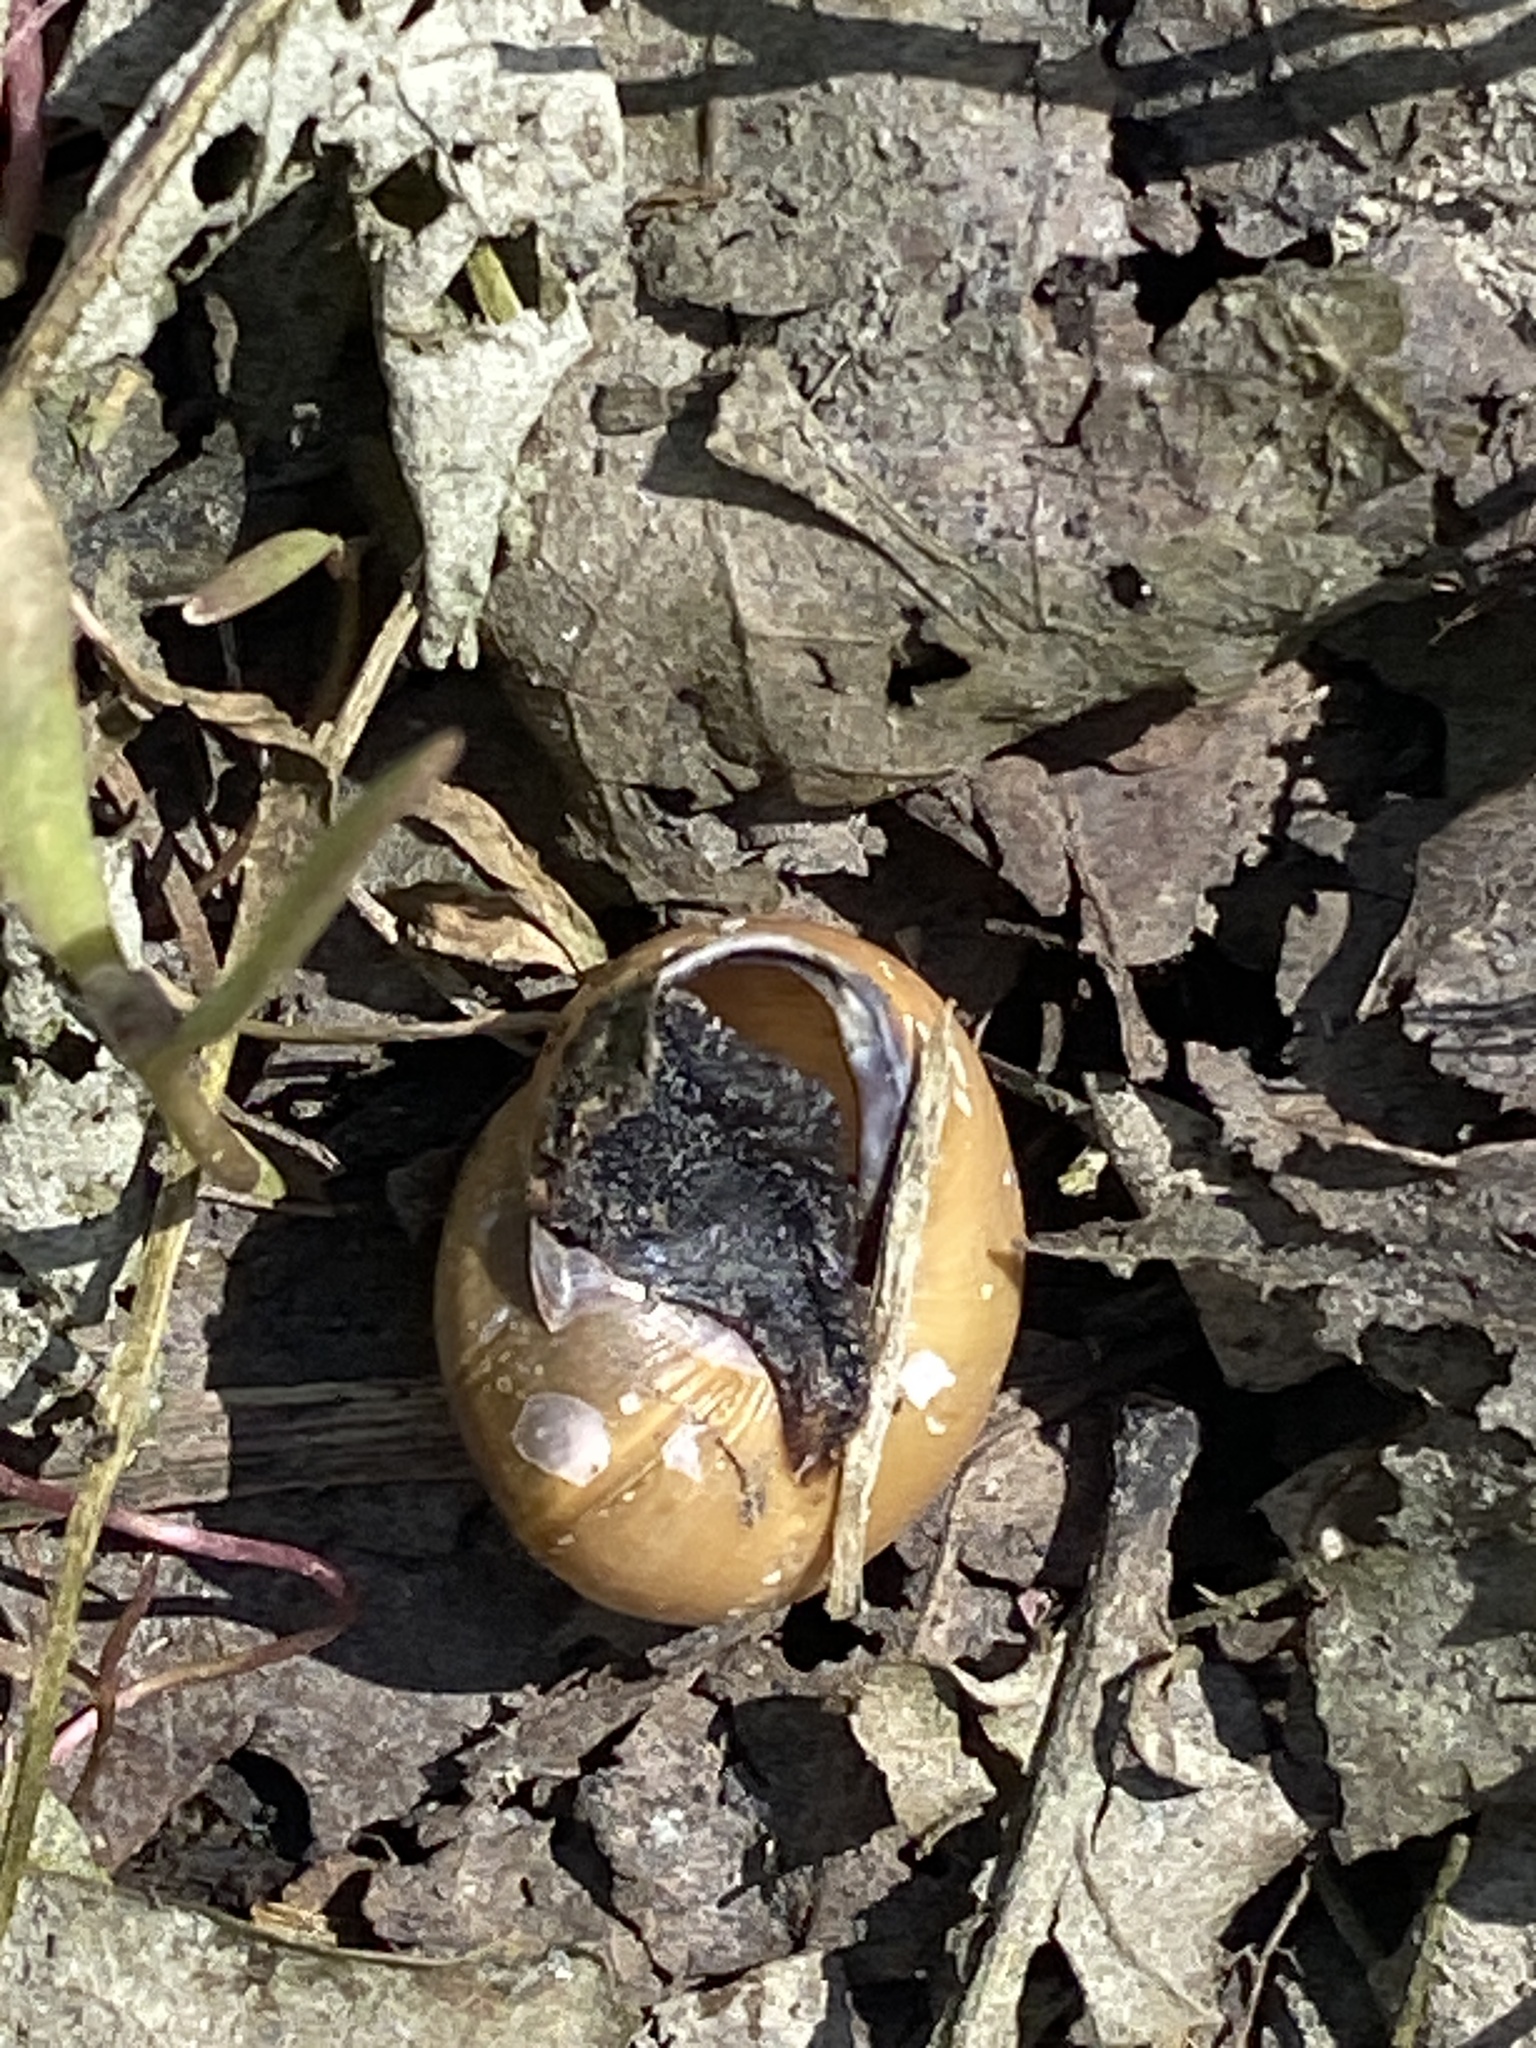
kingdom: Animalia
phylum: Mollusca
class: Gastropoda
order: Stylommatophora
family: Helicidae
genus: Cepaea
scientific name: Cepaea nemoralis
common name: Grovesnail
